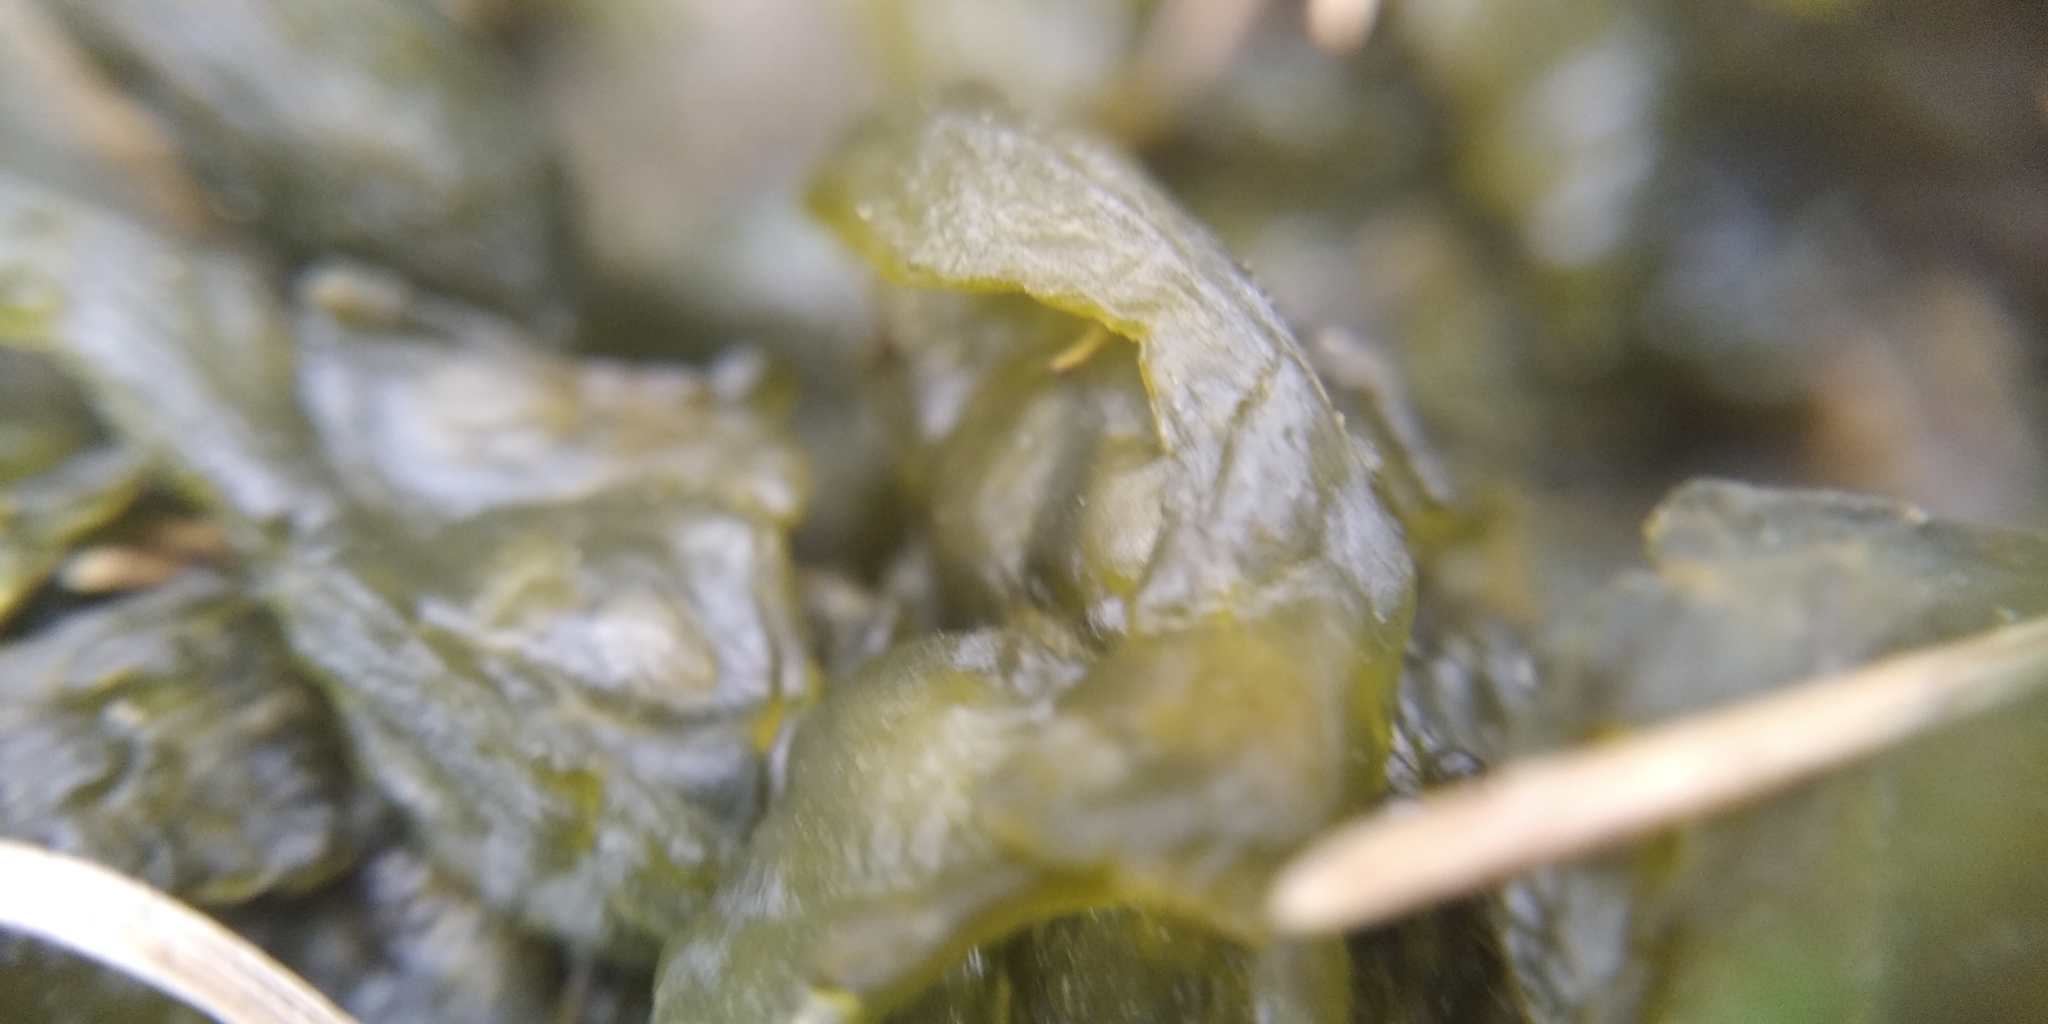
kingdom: Bacteria
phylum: Cyanobacteria
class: Cyanobacteriia
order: Cyanobacteriales
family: Nostocaceae
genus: Nostoc
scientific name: Nostoc commune
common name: Star jelly
